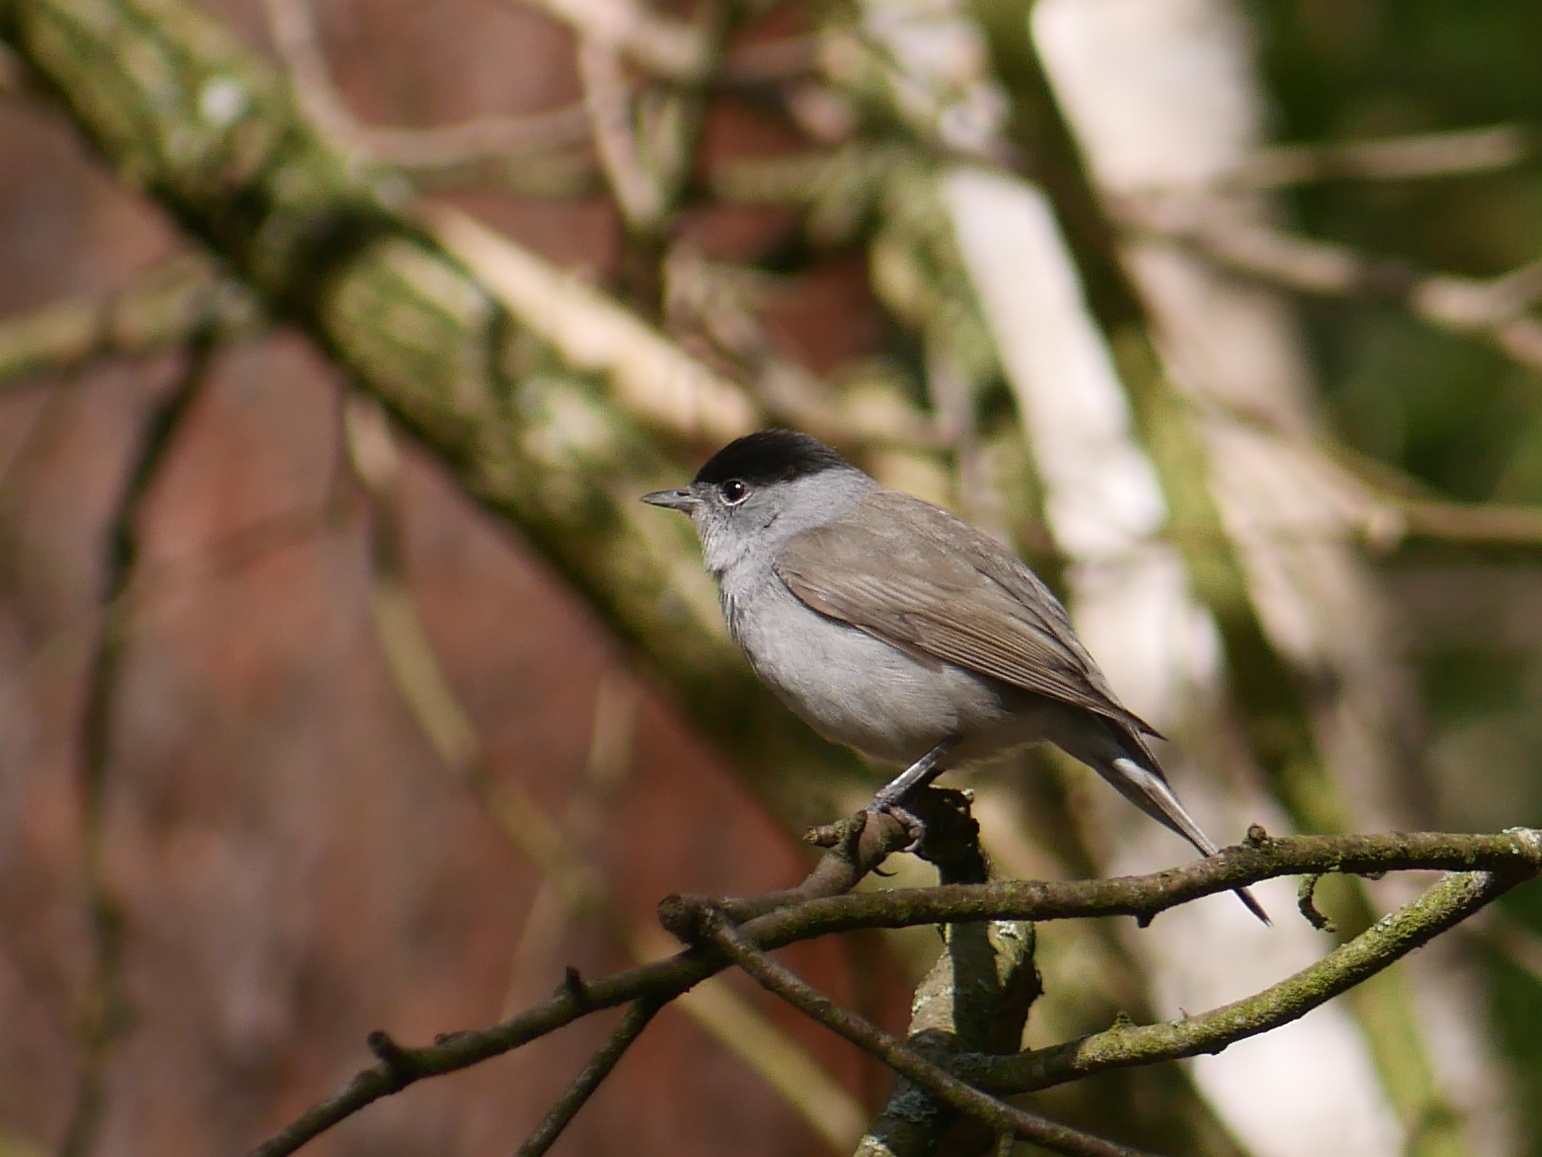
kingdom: Animalia
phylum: Chordata
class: Aves
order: Passeriformes
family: Sylviidae
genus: Sylvia
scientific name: Sylvia atricapilla
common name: Eurasian blackcap
